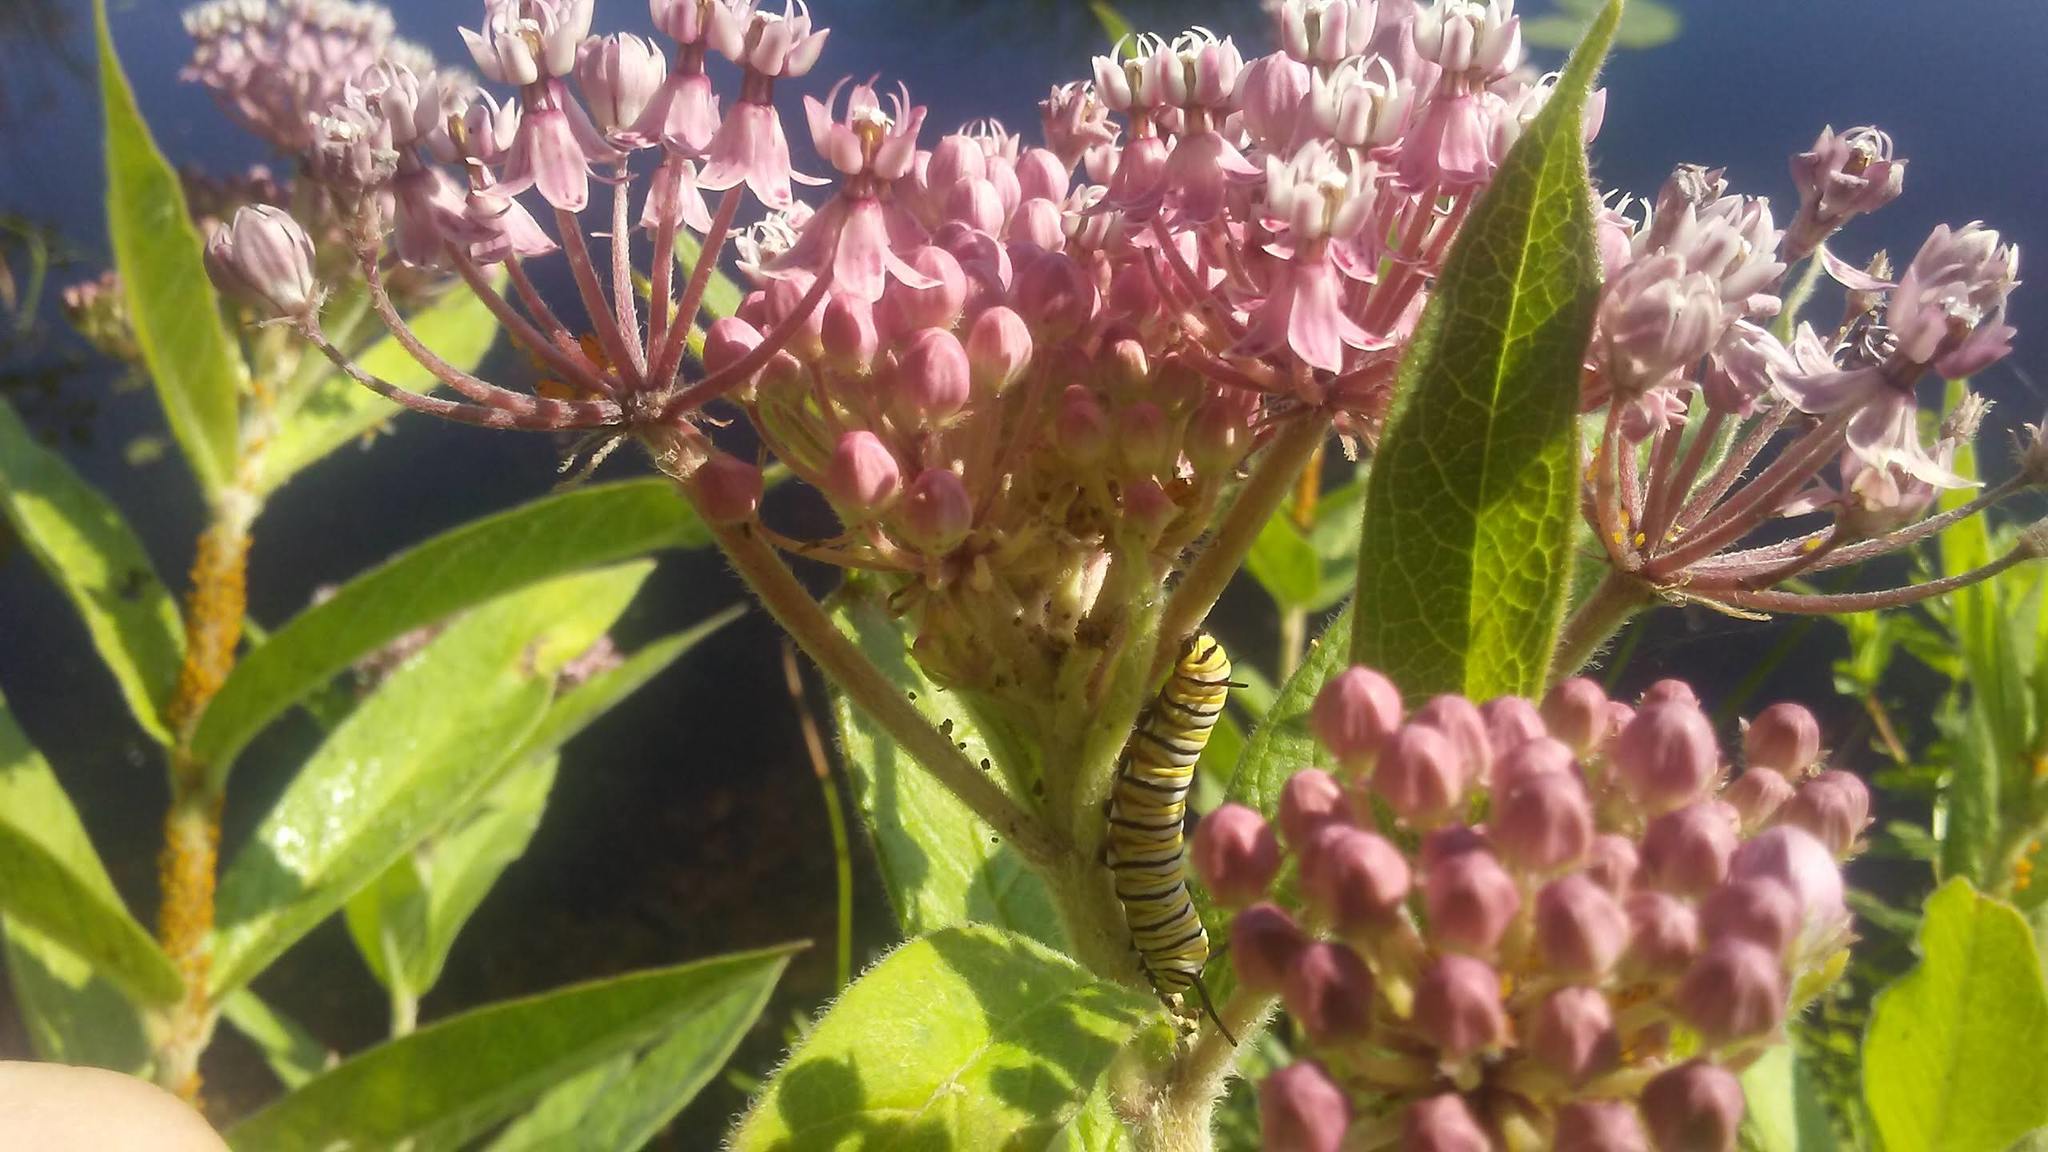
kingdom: Animalia
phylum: Arthropoda
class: Insecta
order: Lepidoptera
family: Nymphalidae
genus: Danaus
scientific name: Danaus plexippus
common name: Monarch
